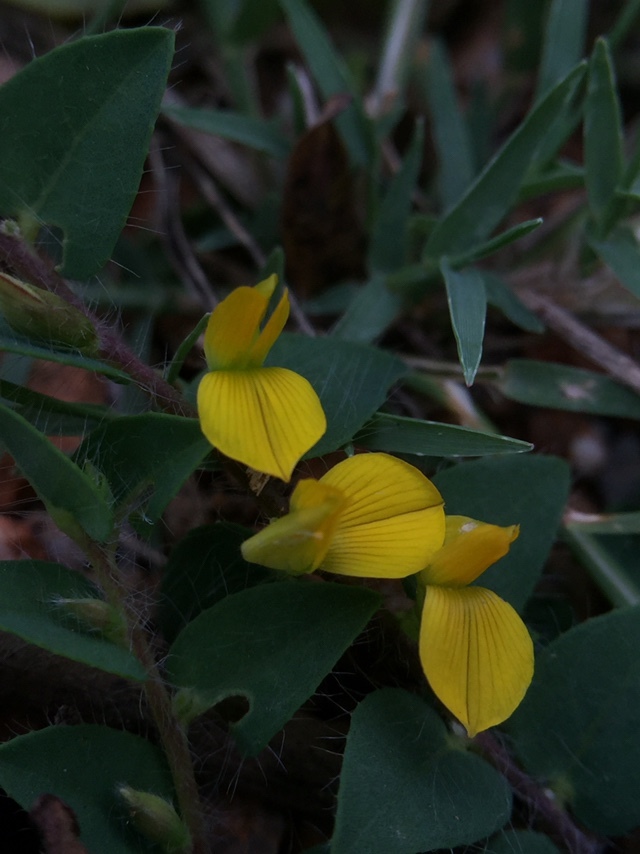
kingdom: Plantae
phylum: Tracheophyta
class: Magnoliopsida
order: Fabales
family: Fabaceae
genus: Crotalaria
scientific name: Crotalaria hebecarpa
